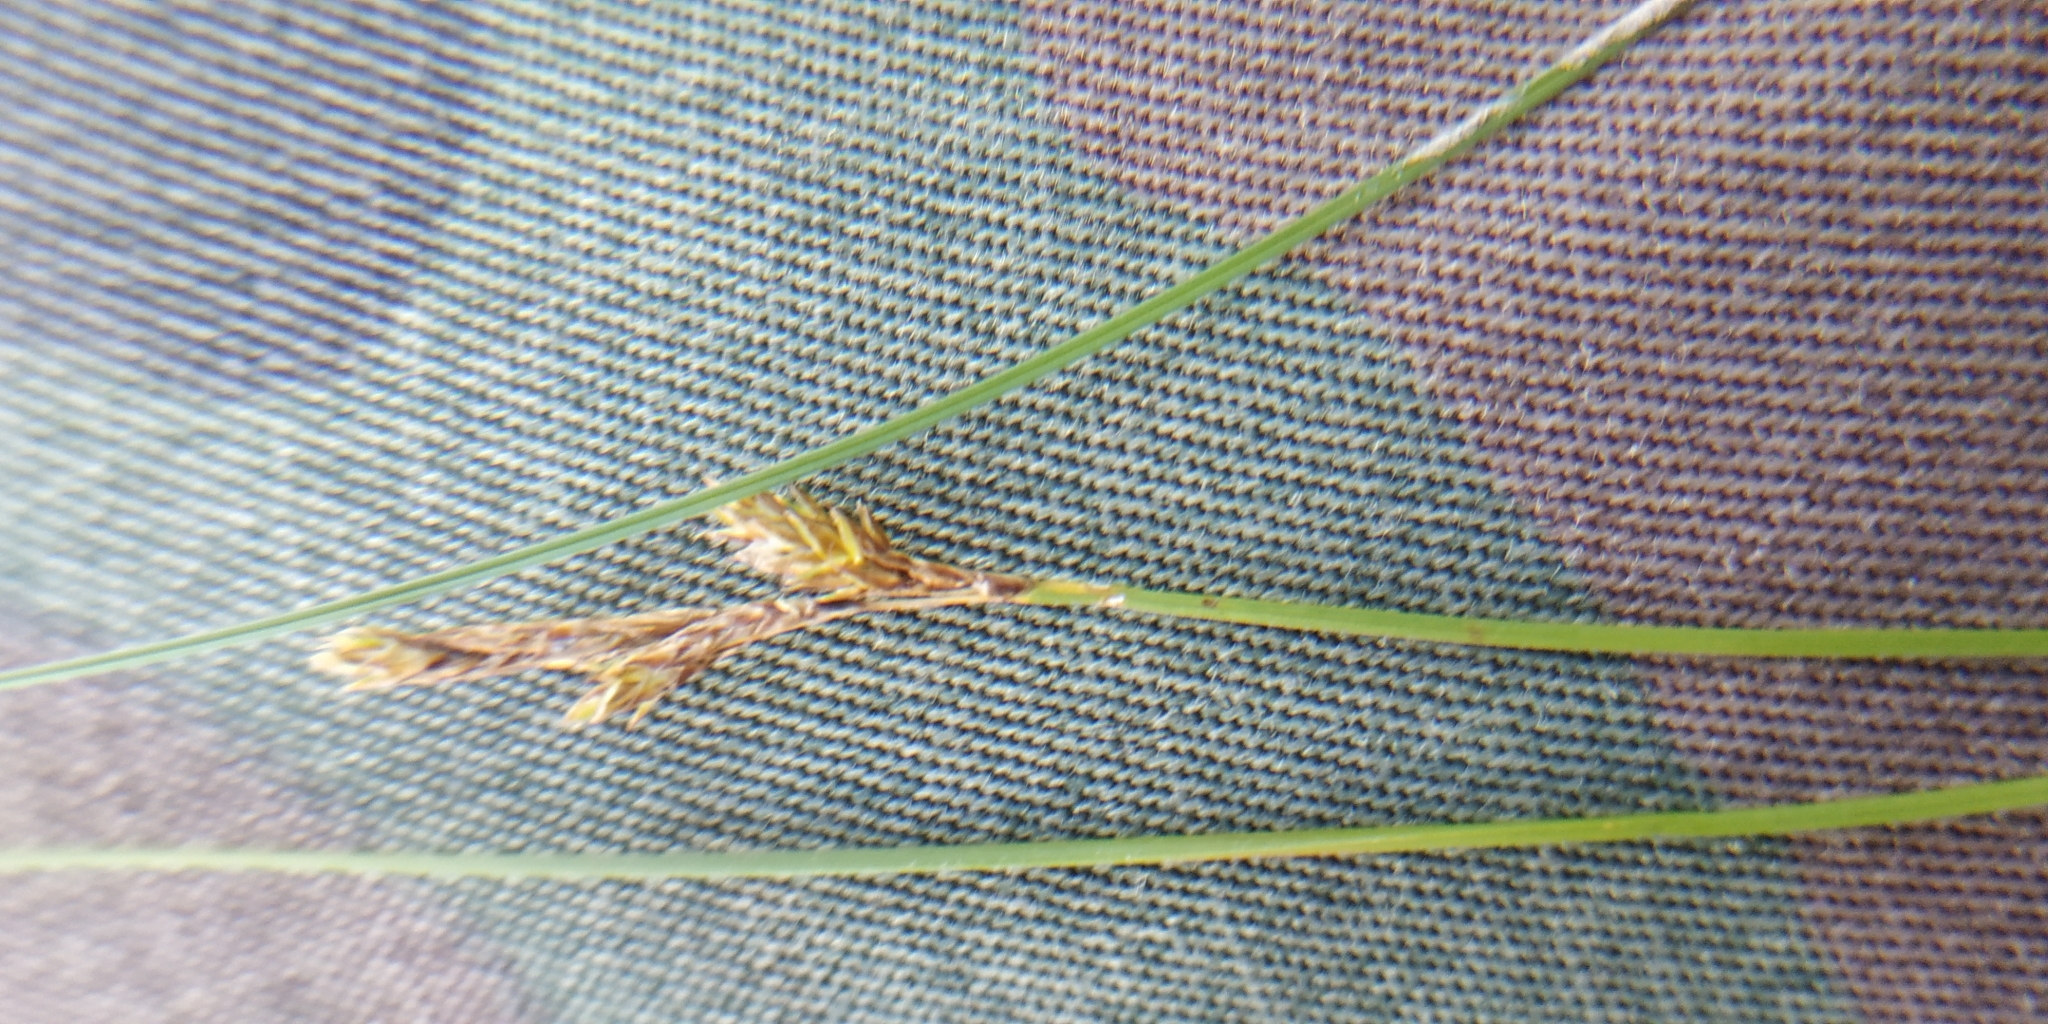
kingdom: Plantae
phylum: Tracheophyta
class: Liliopsida
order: Poales
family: Cyperaceae
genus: Carex
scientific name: Carex praecox
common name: Early sedge
